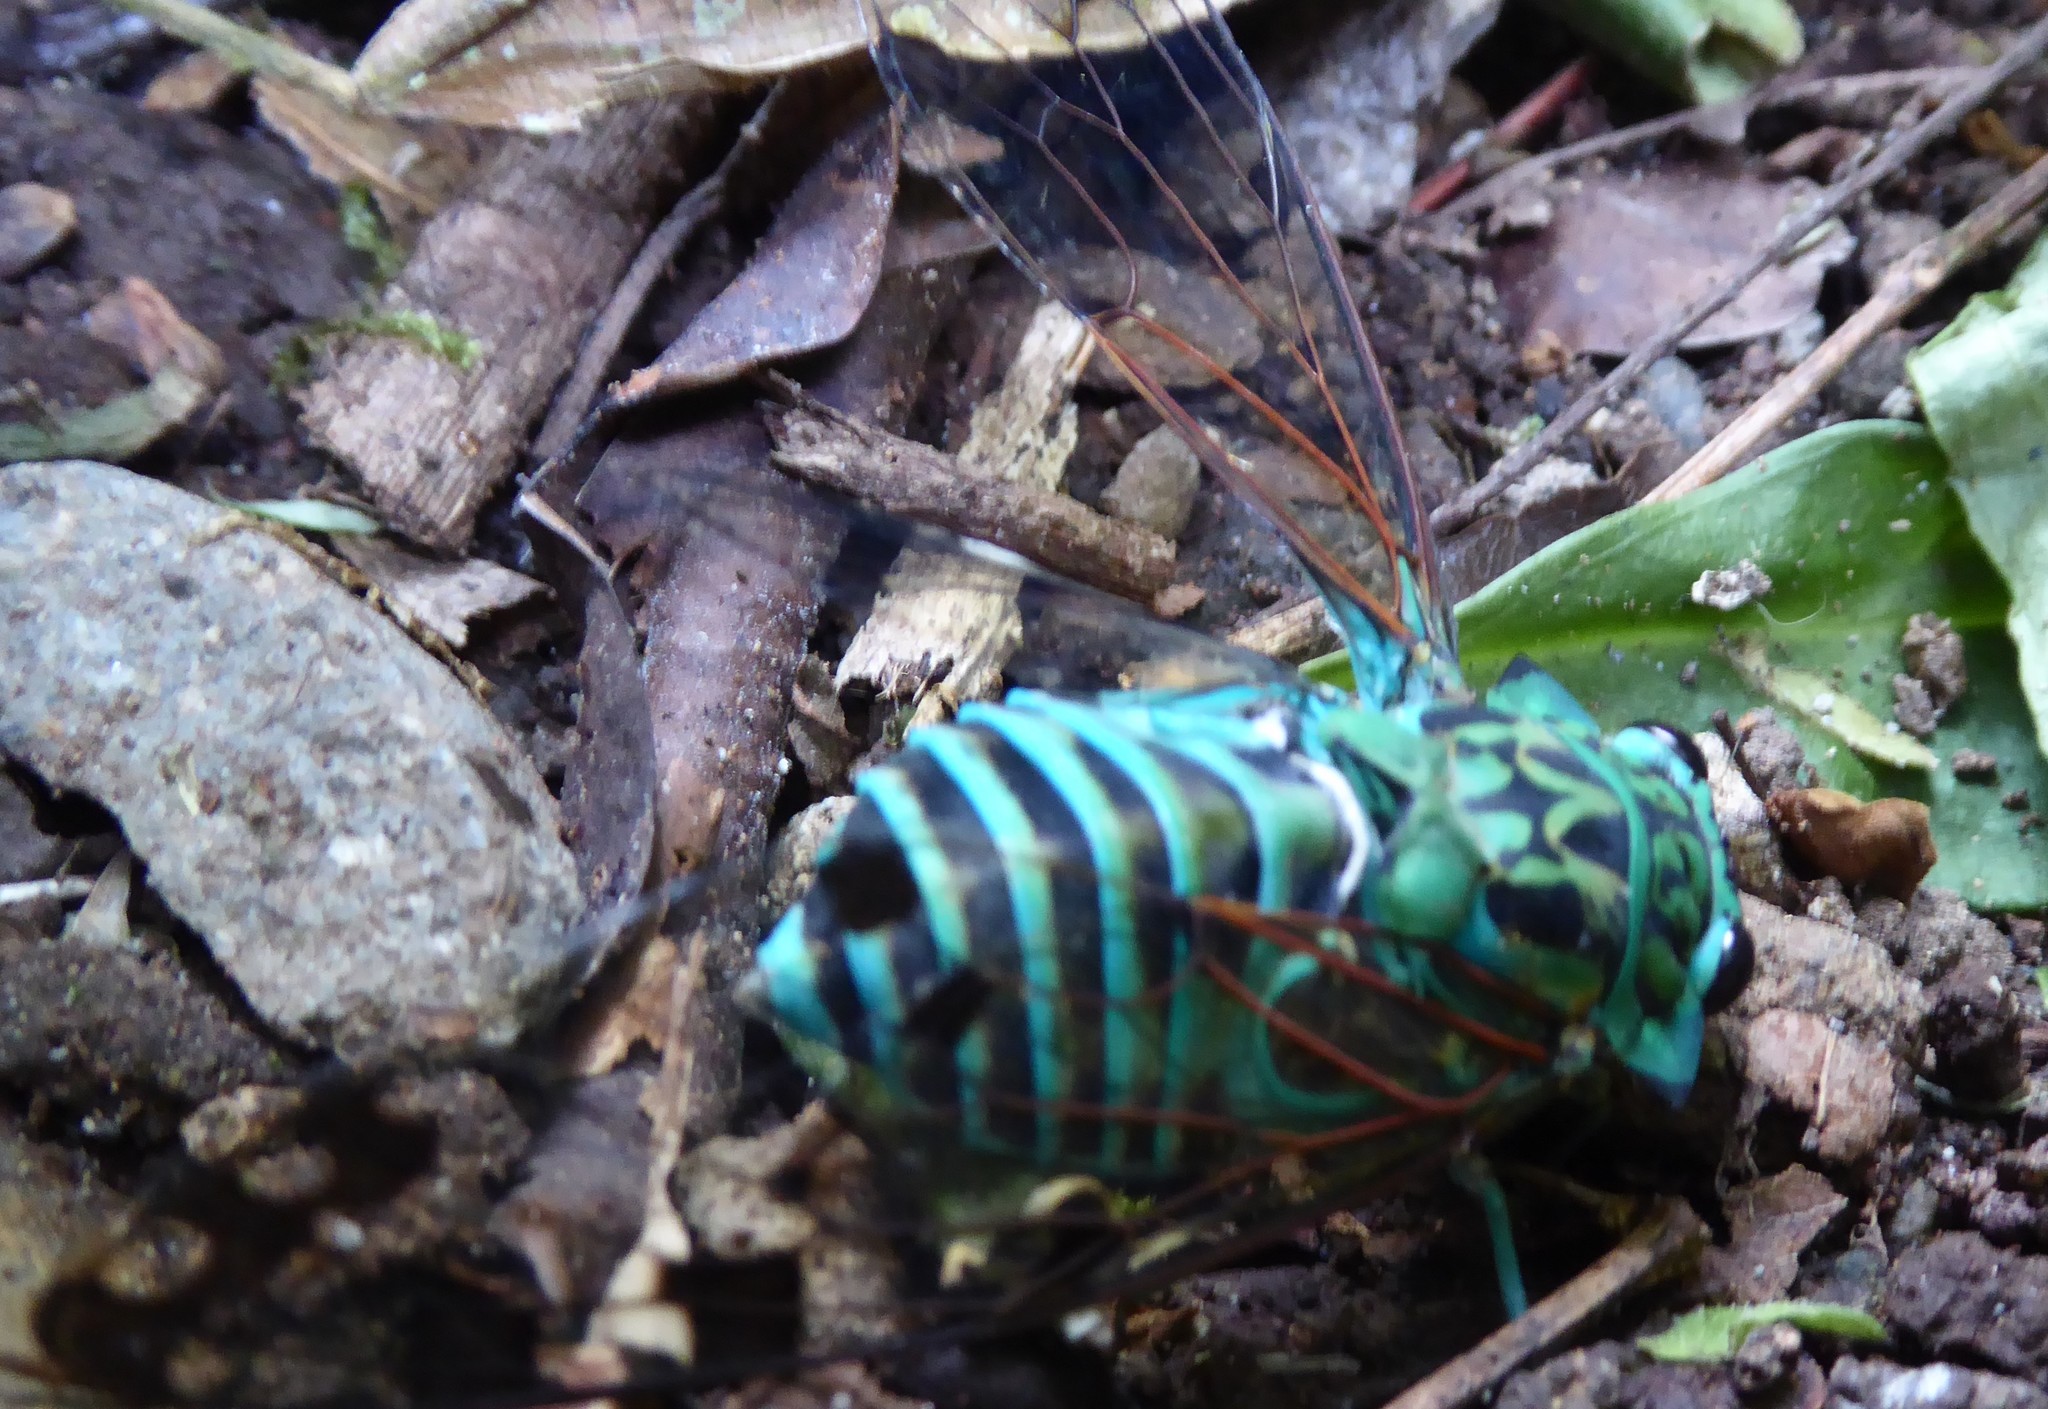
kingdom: Animalia
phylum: Arthropoda
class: Insecta
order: Hemiptera
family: Cicadidae
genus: Zammara
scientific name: Zammara smaragdina
